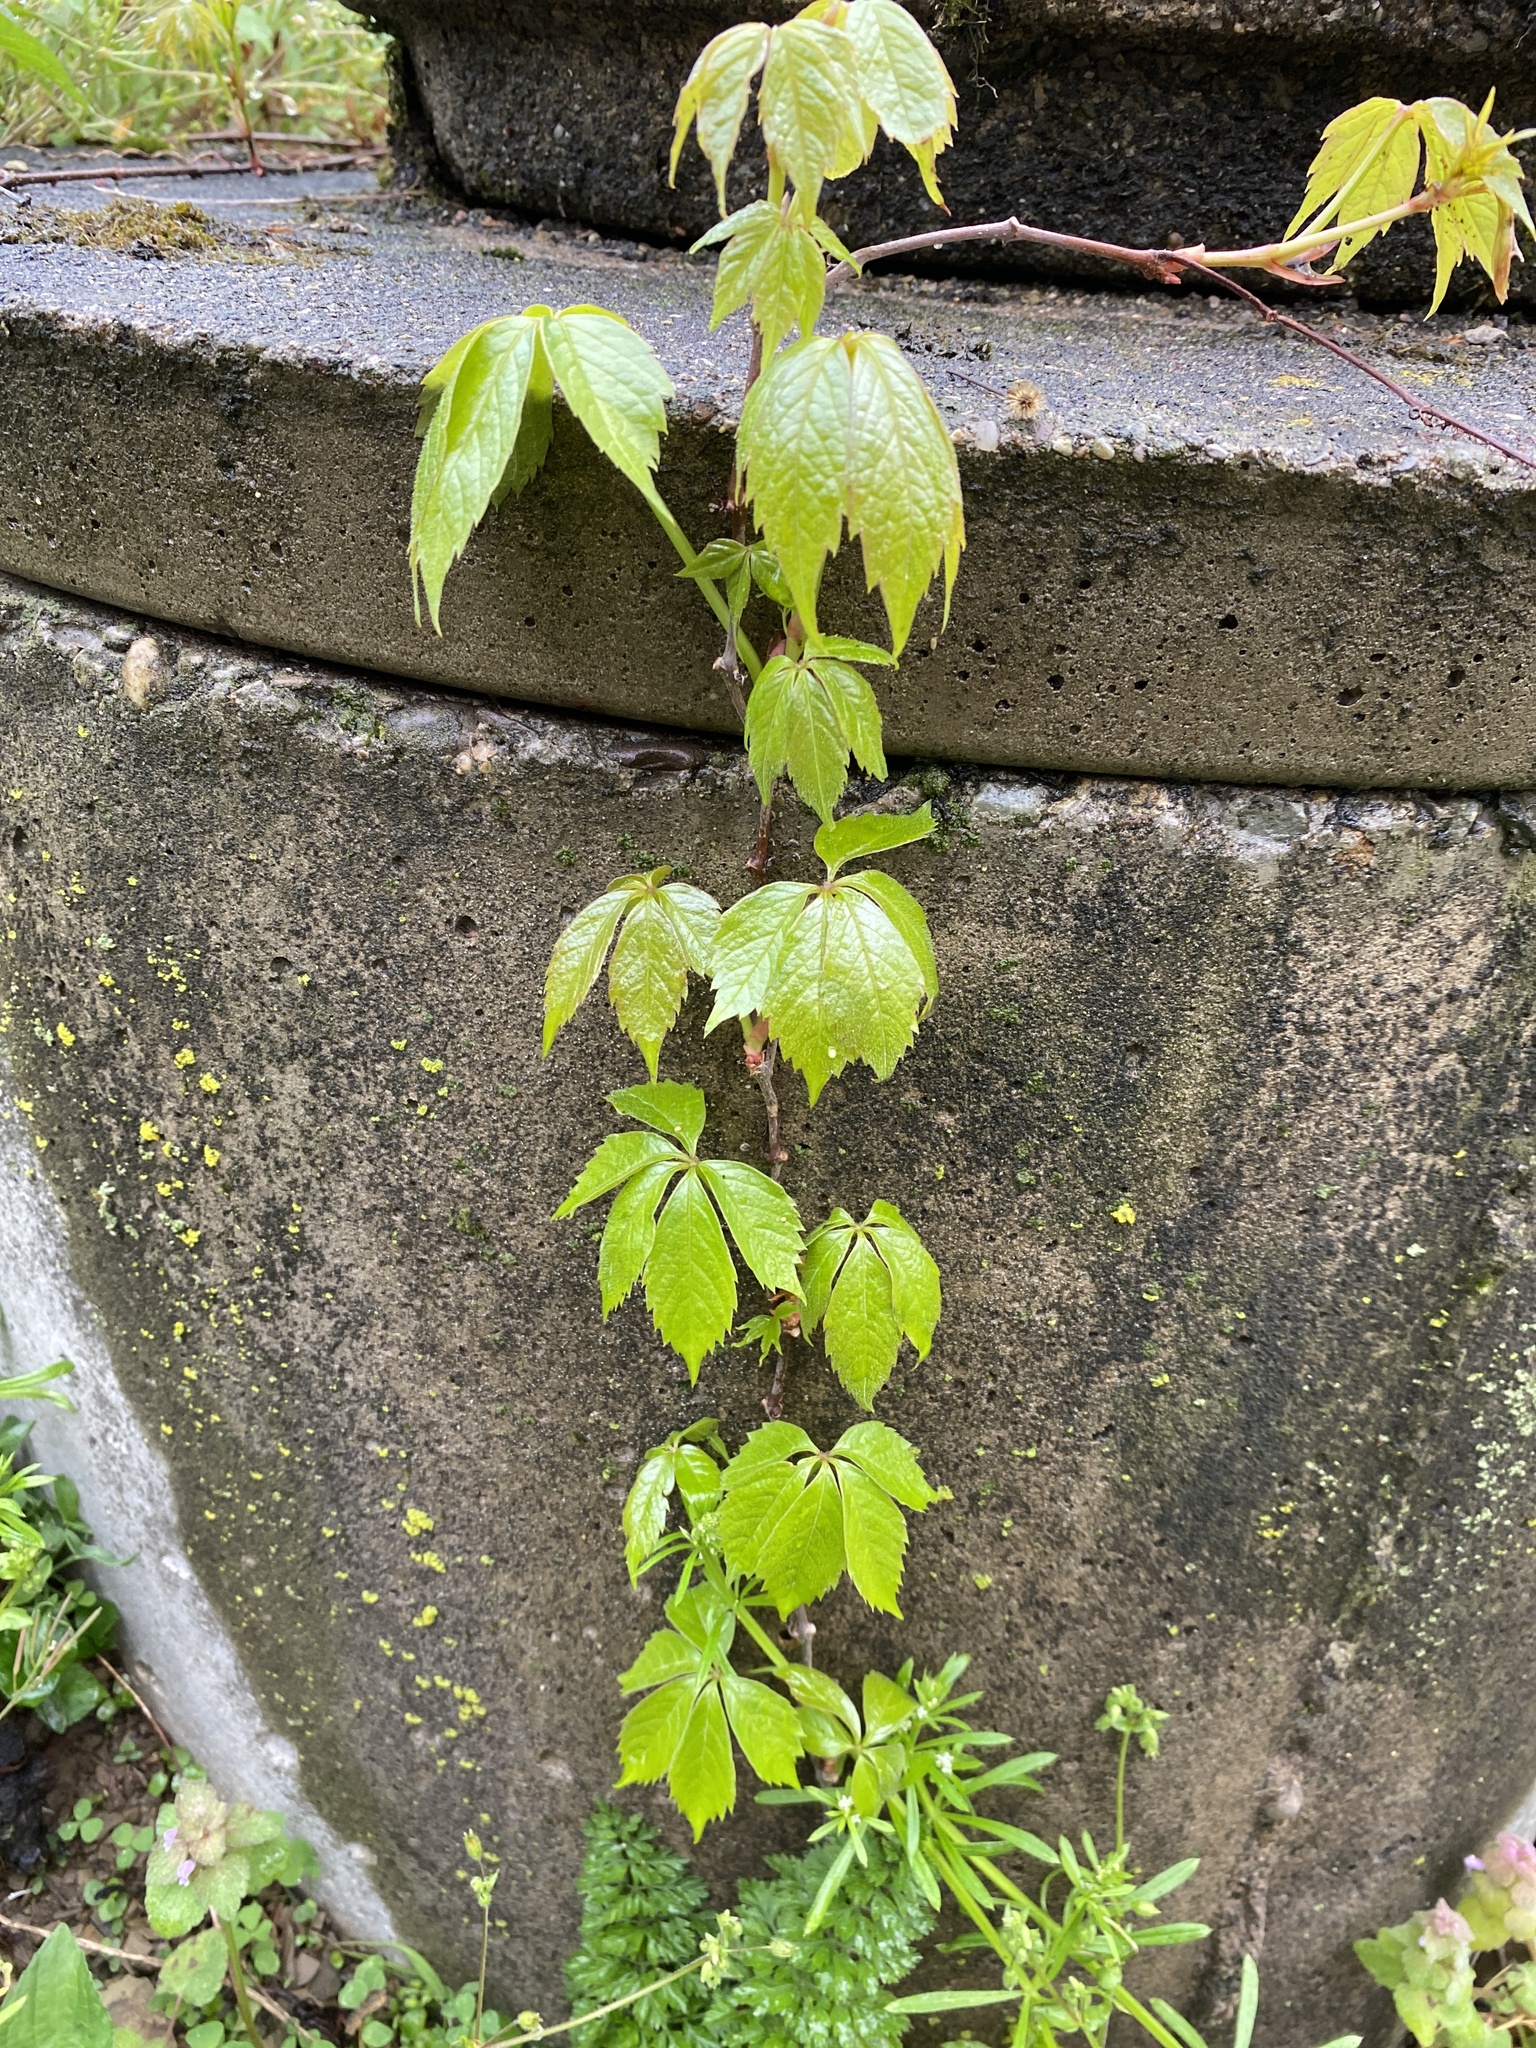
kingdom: Plantae
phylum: Tracheophyta
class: Magnoliopsida
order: Vitales
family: Vitaceae
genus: Parthenocissus
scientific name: Parthenocissus quinquefolia
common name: Virginia-creeper
